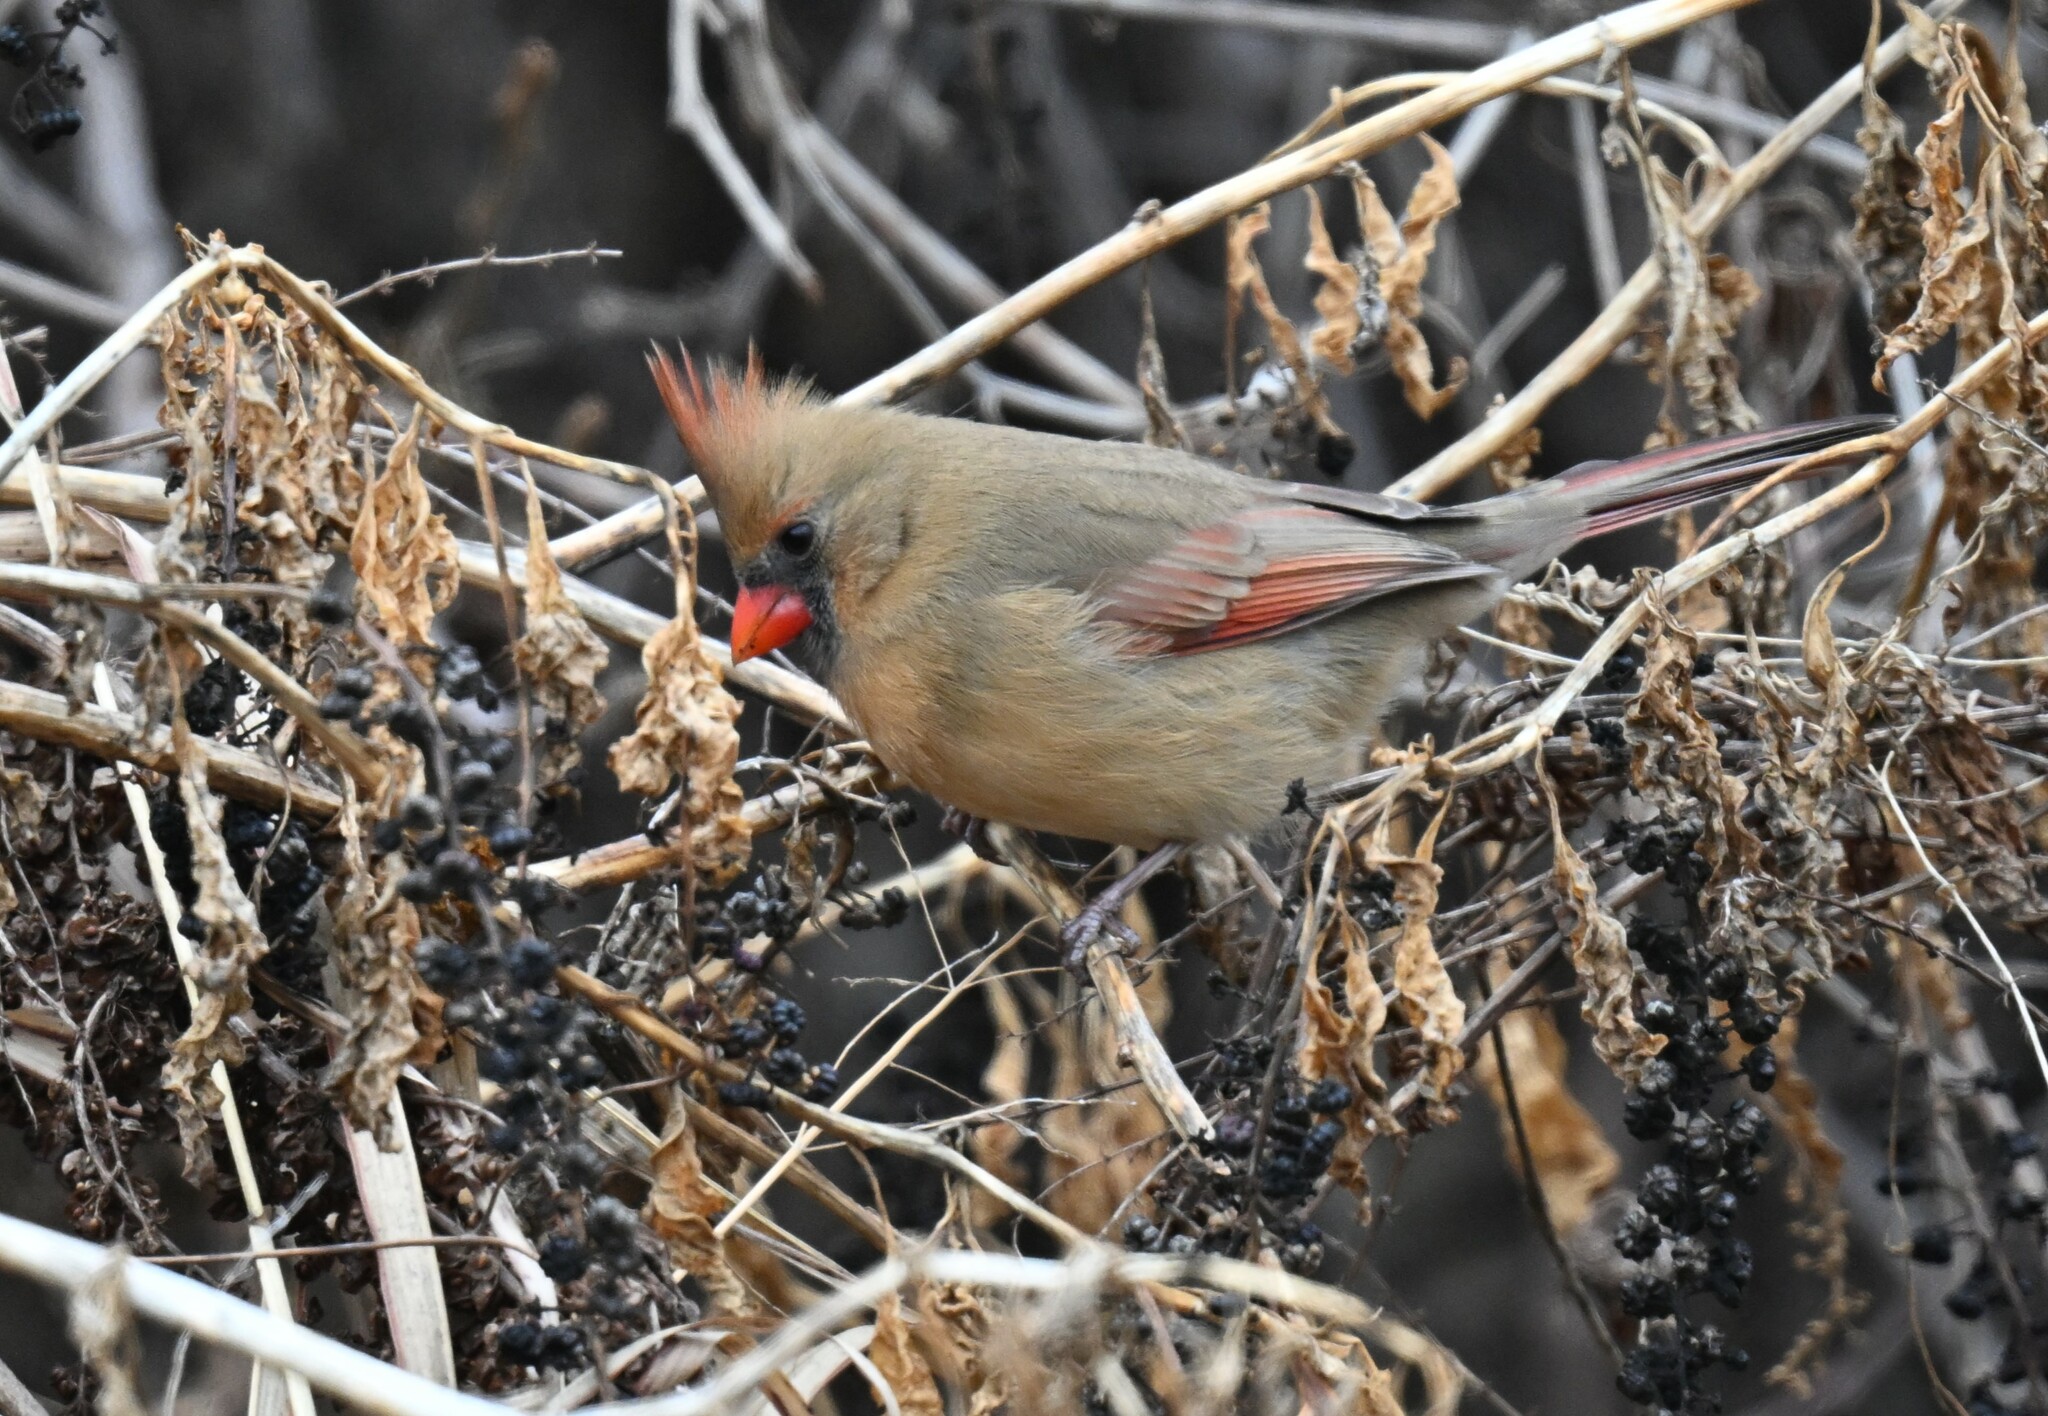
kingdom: Animalia
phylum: Chordata
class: Aves
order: Passeriformes
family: Cardinalidae
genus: Cardinalis
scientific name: Cardinalis cardinalis
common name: Northern cardinal
